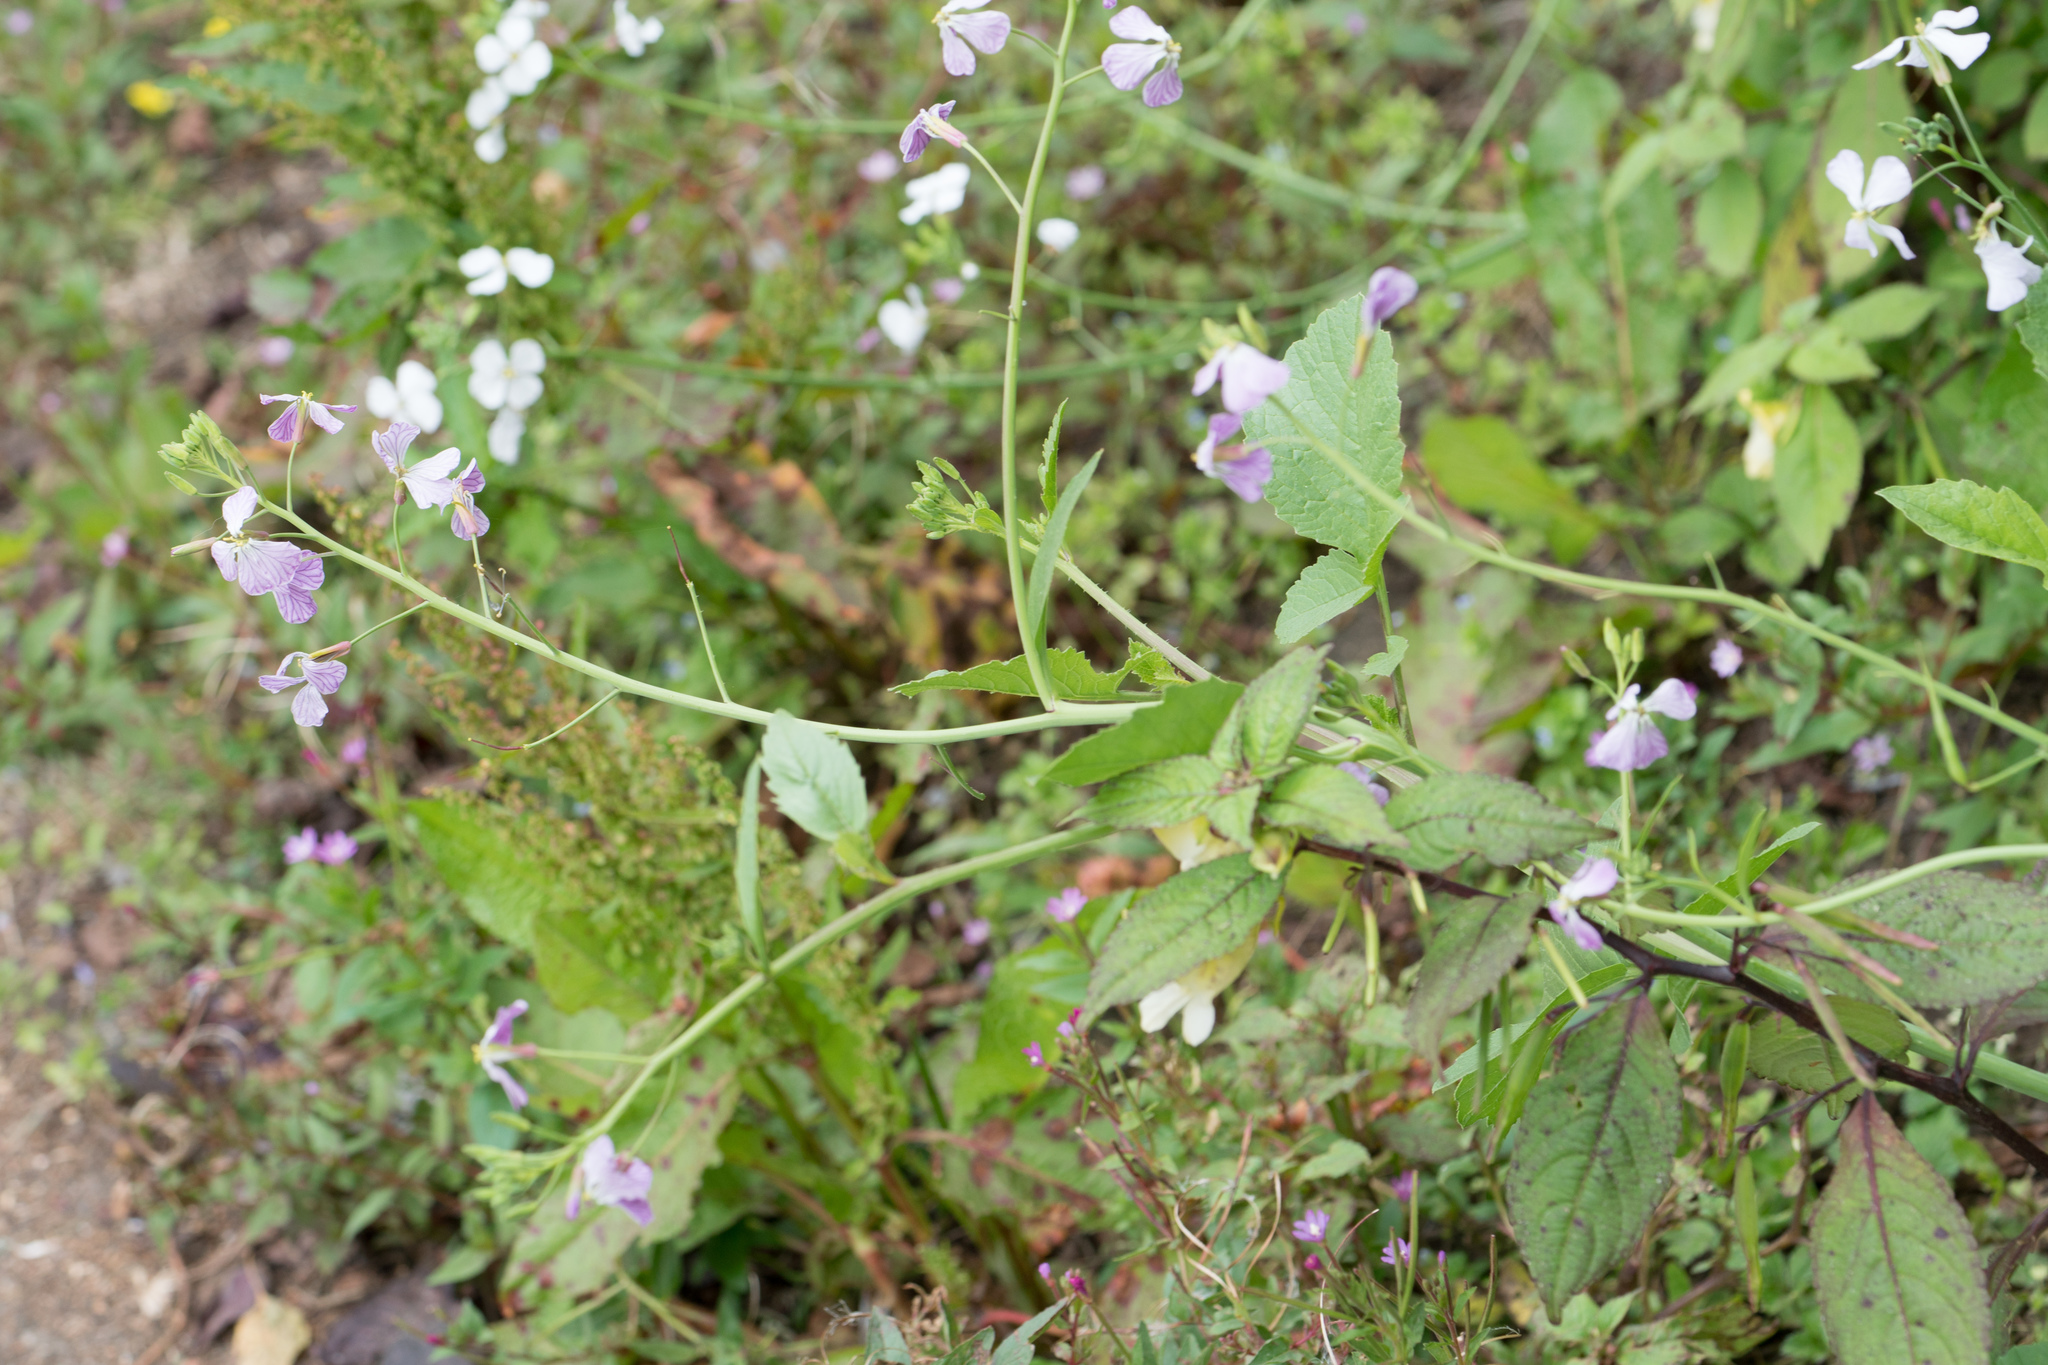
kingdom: Plantae
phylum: Tracheophyta
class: Magnoliopsida
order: Brassicales
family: Brassicaceae
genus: Raphanus
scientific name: Raphanus sativus
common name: Cultivated radish
